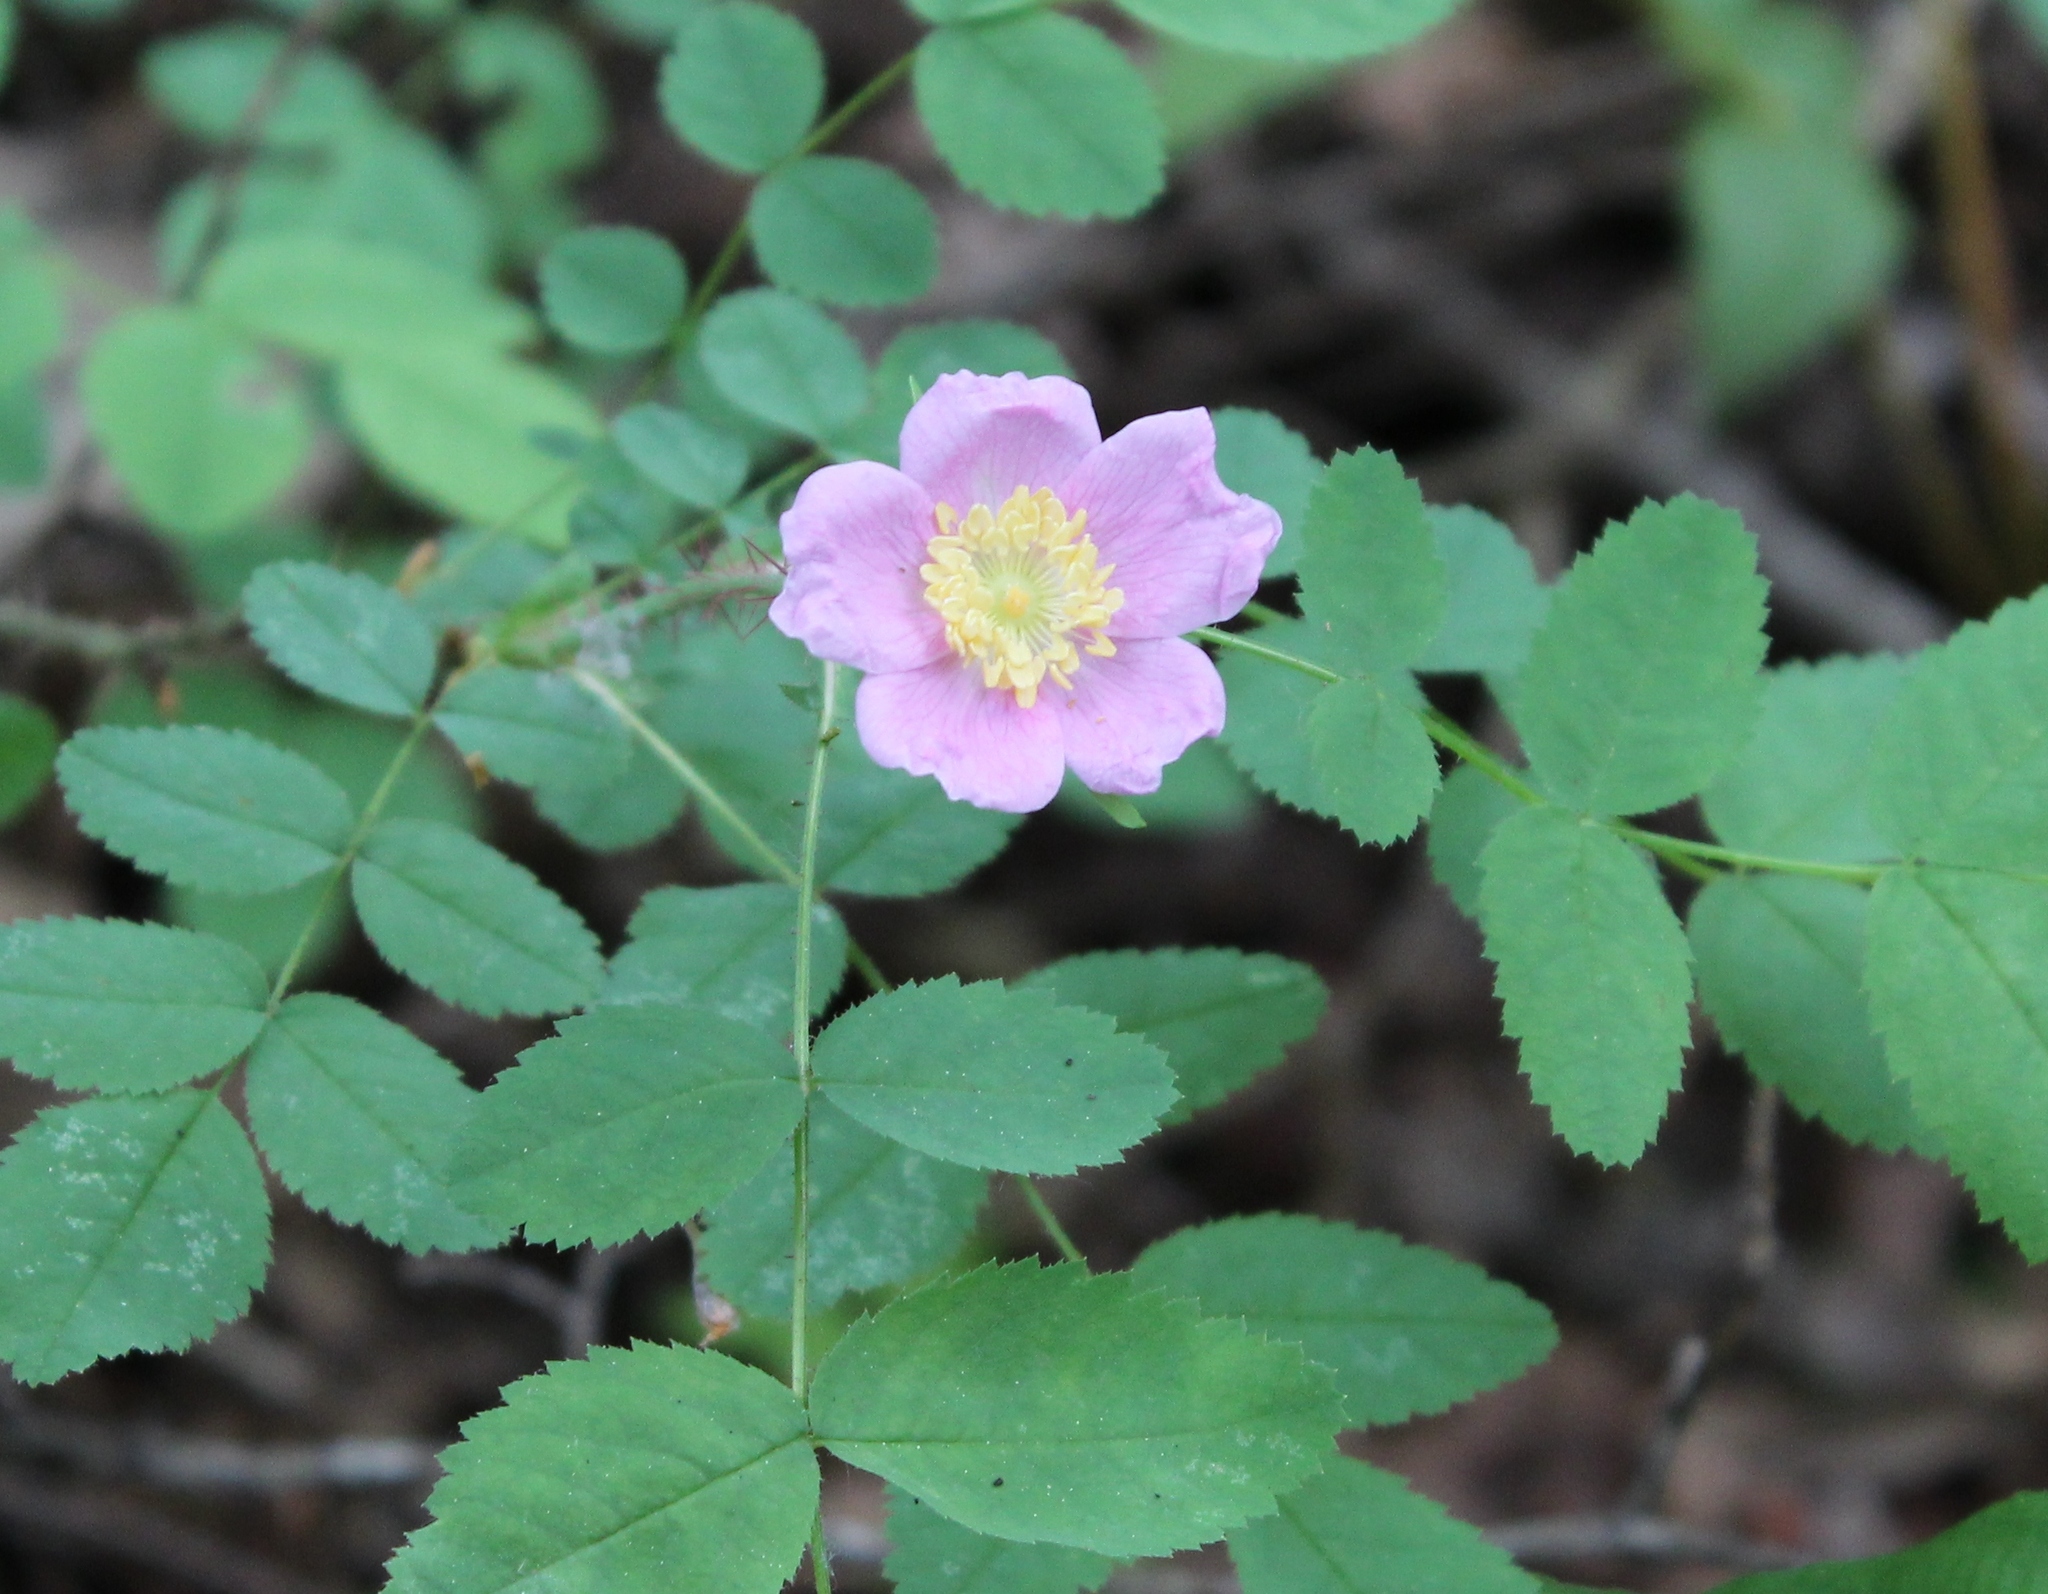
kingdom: Plantae
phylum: Tracheophyta
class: Magnoliopsida
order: Rosales
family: Rosaceae
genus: Rosa
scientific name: Rosa gymnocarpa
